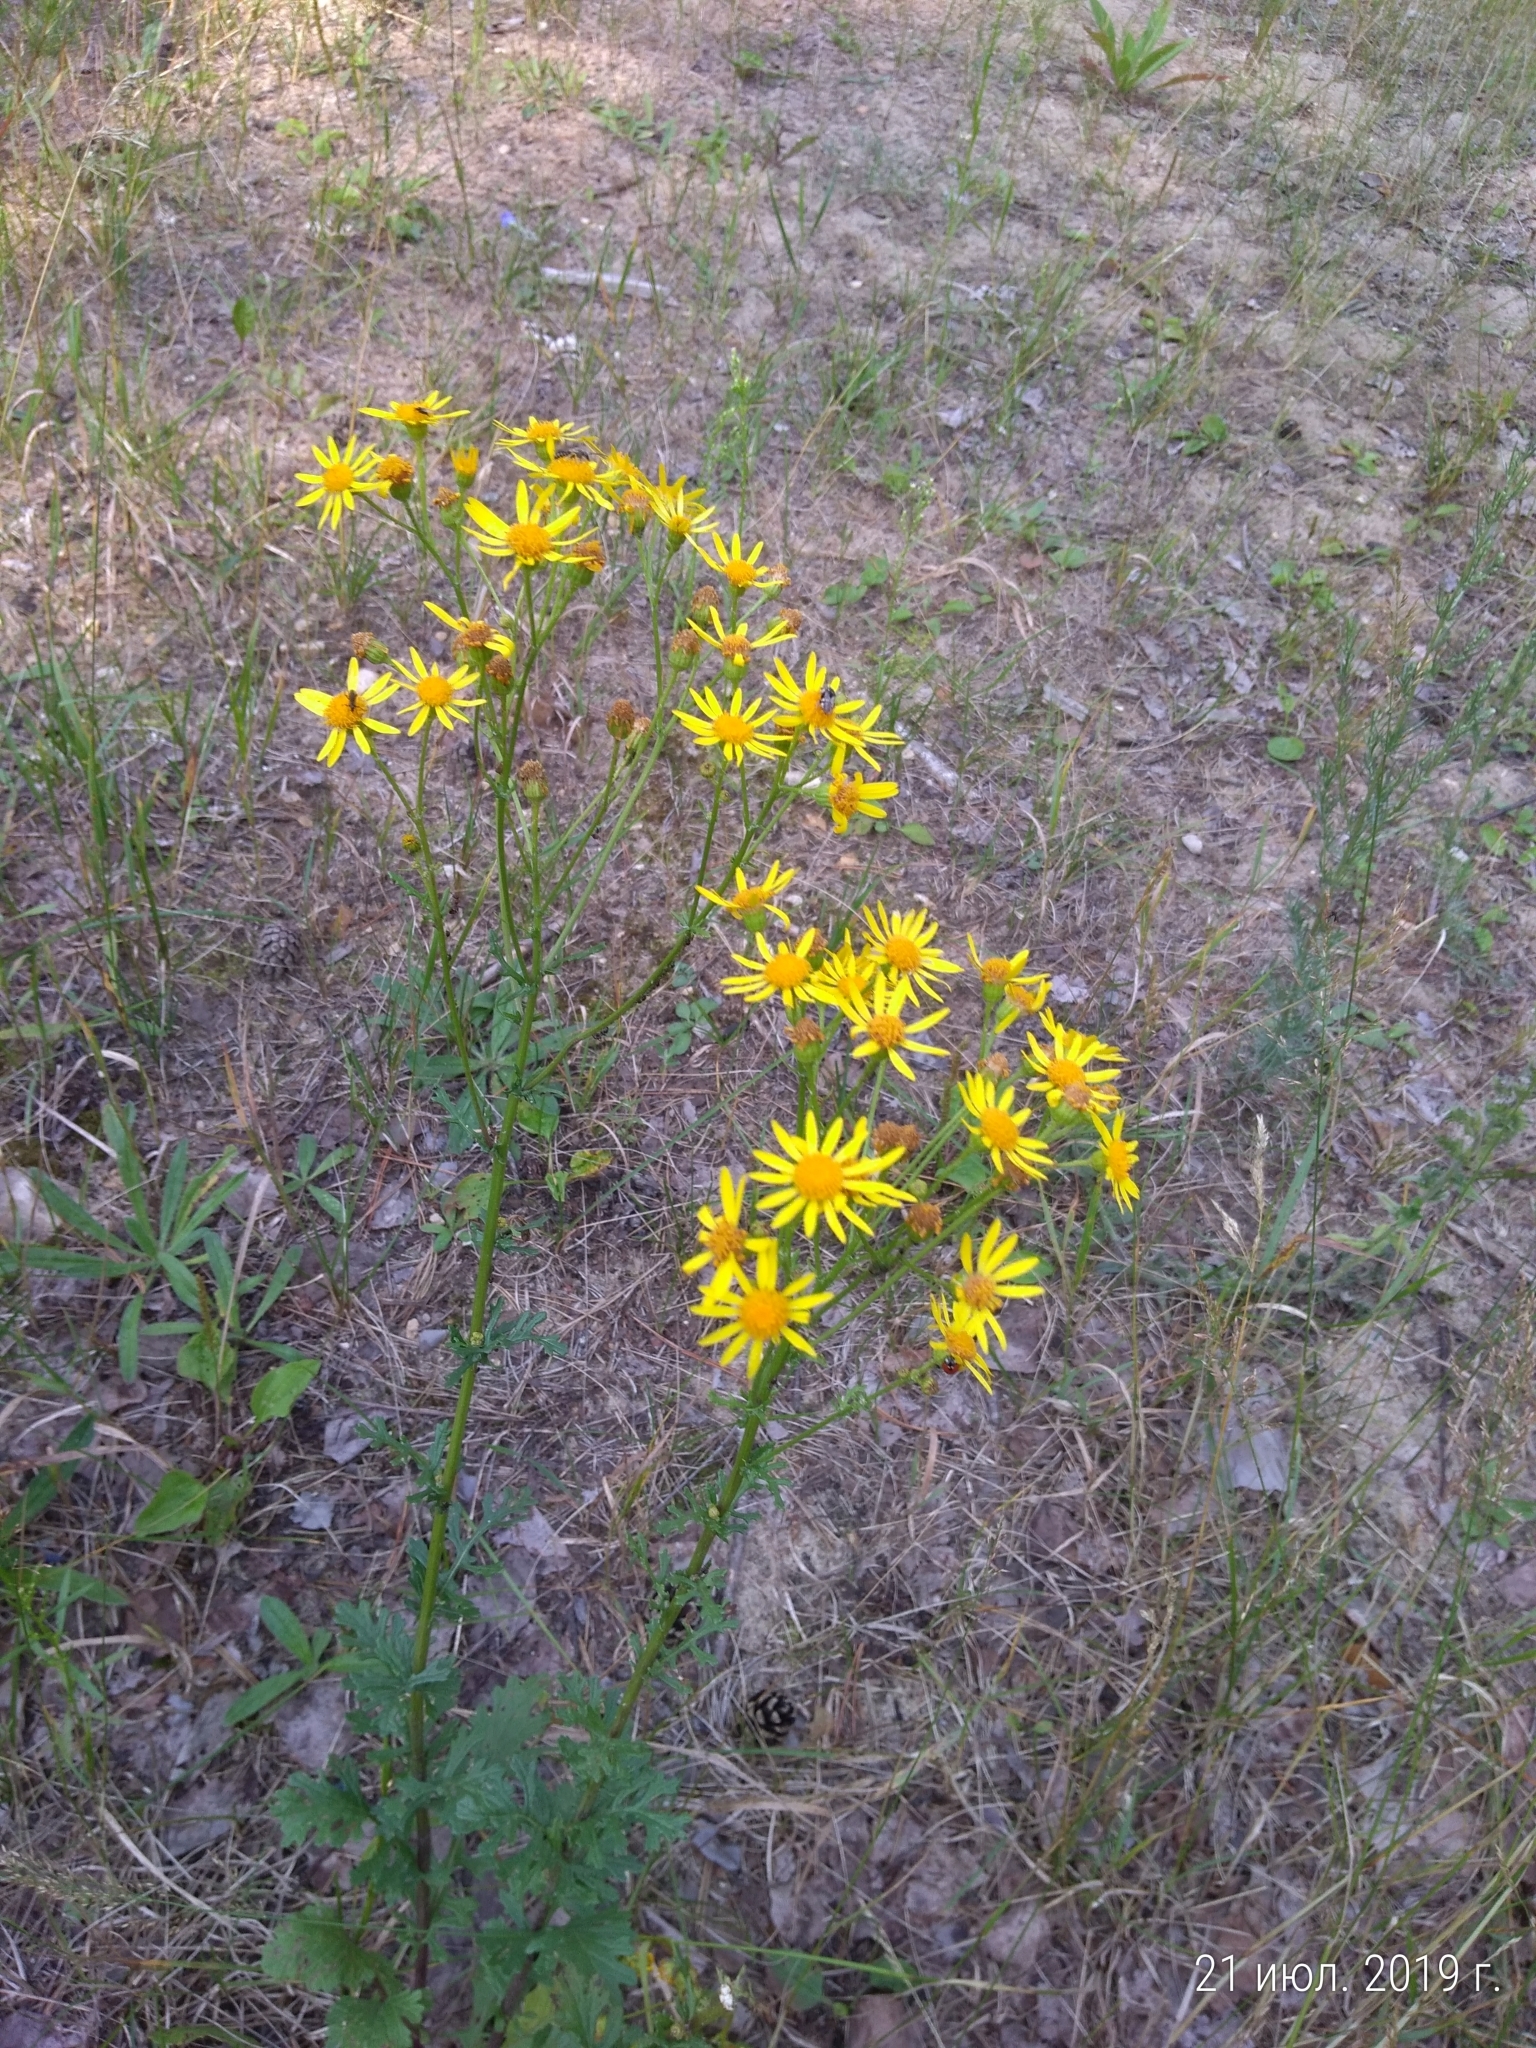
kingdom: Plantae
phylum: Tracheophyta
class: Magnoliopsida
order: Asterales
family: Asteraceae
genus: Jacobaea
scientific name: Jacobaea vulgaris
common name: Stinking willie
